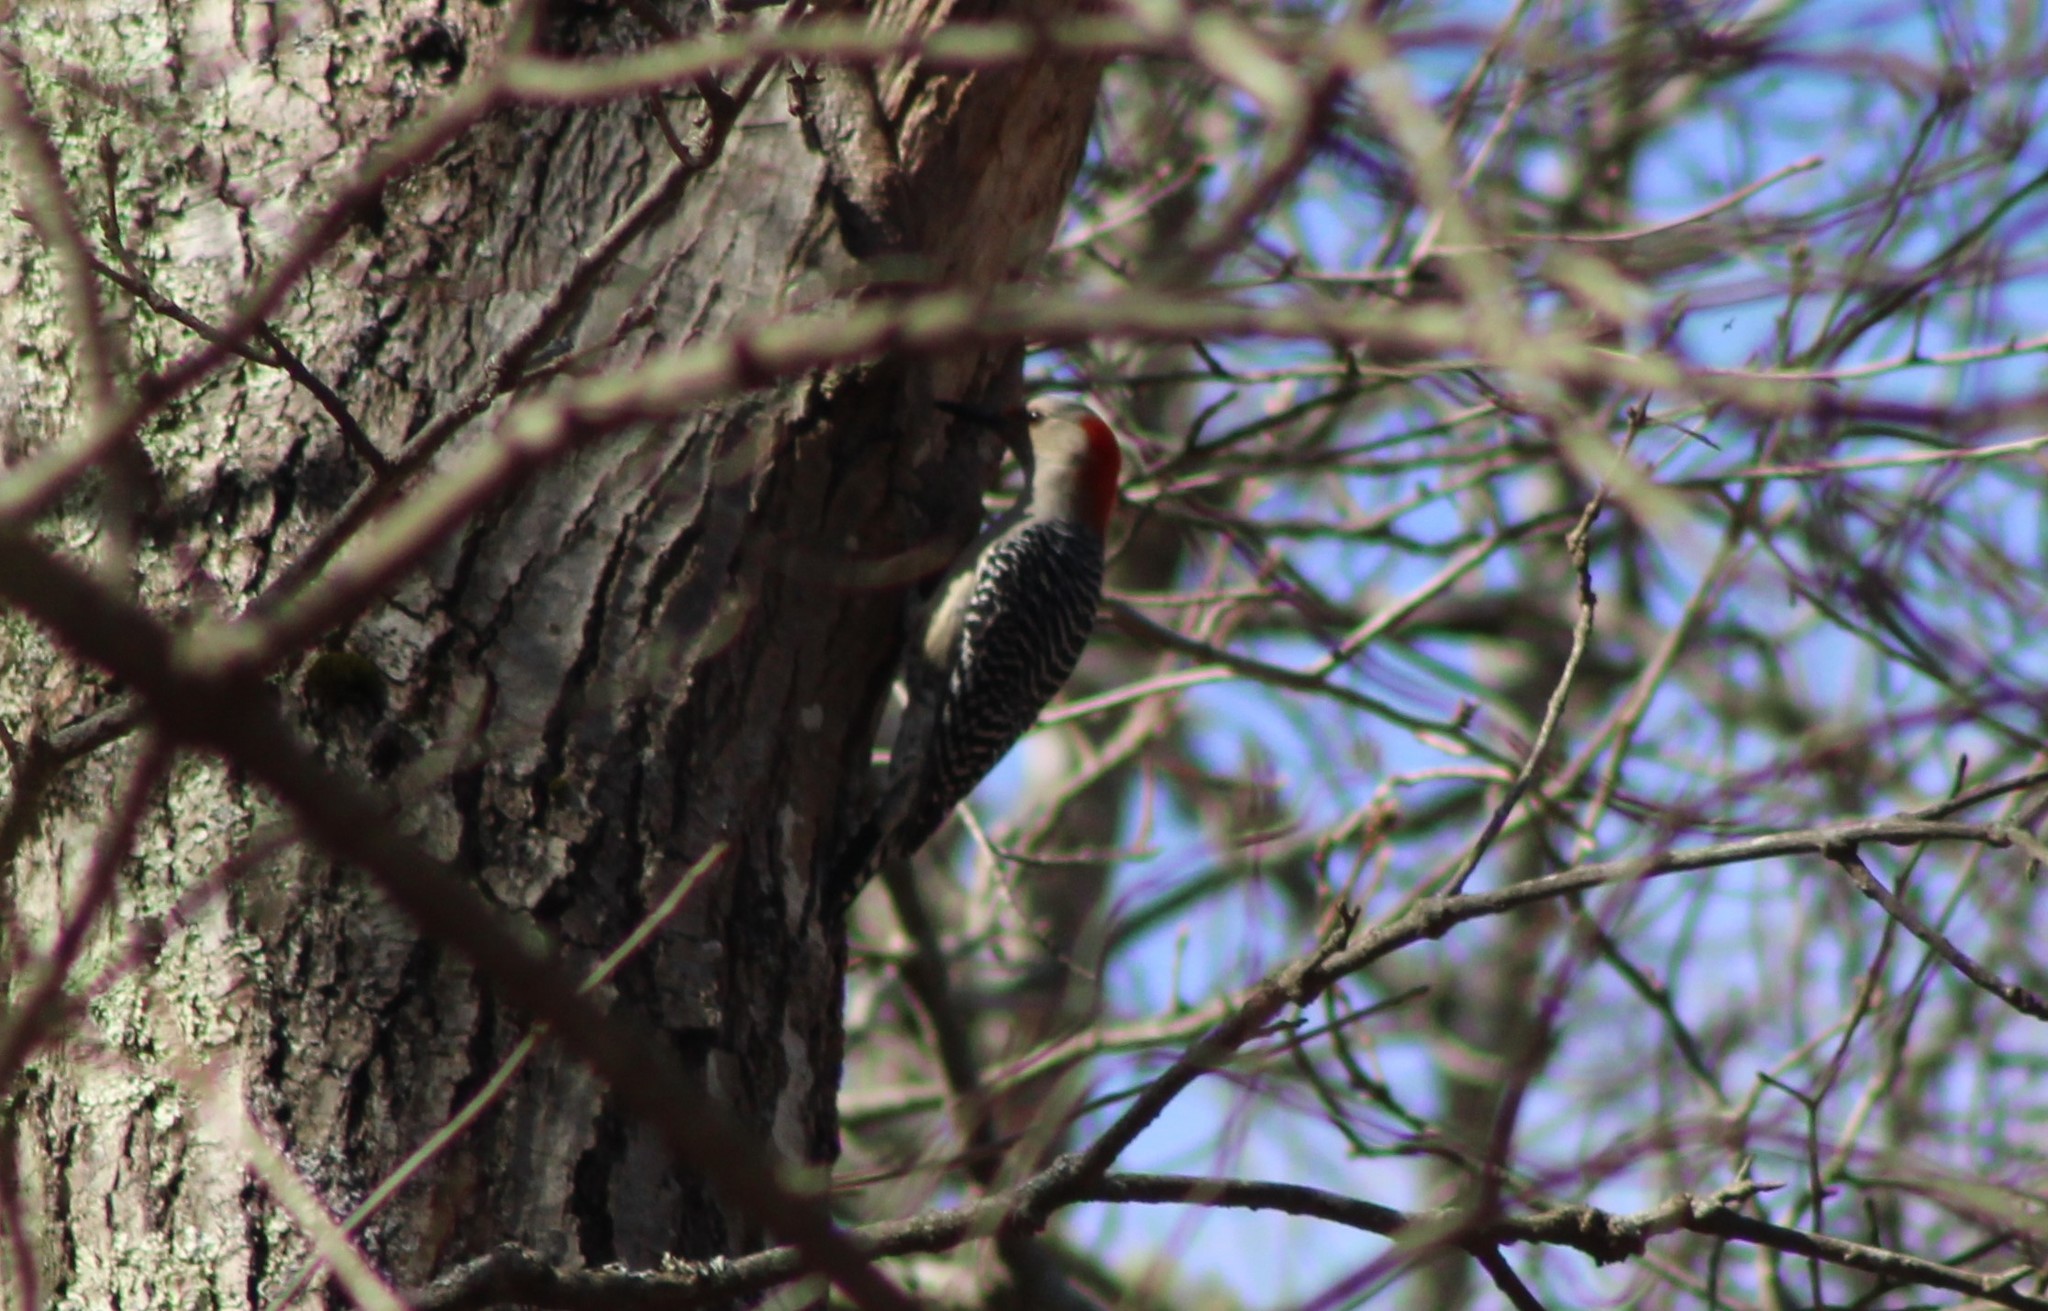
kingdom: Animalia
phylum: Chordata
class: Aves
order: Piciformes
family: Picidae
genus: Melanerpes
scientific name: Melanerpes carolinus
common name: Red-bellied woodpecker
